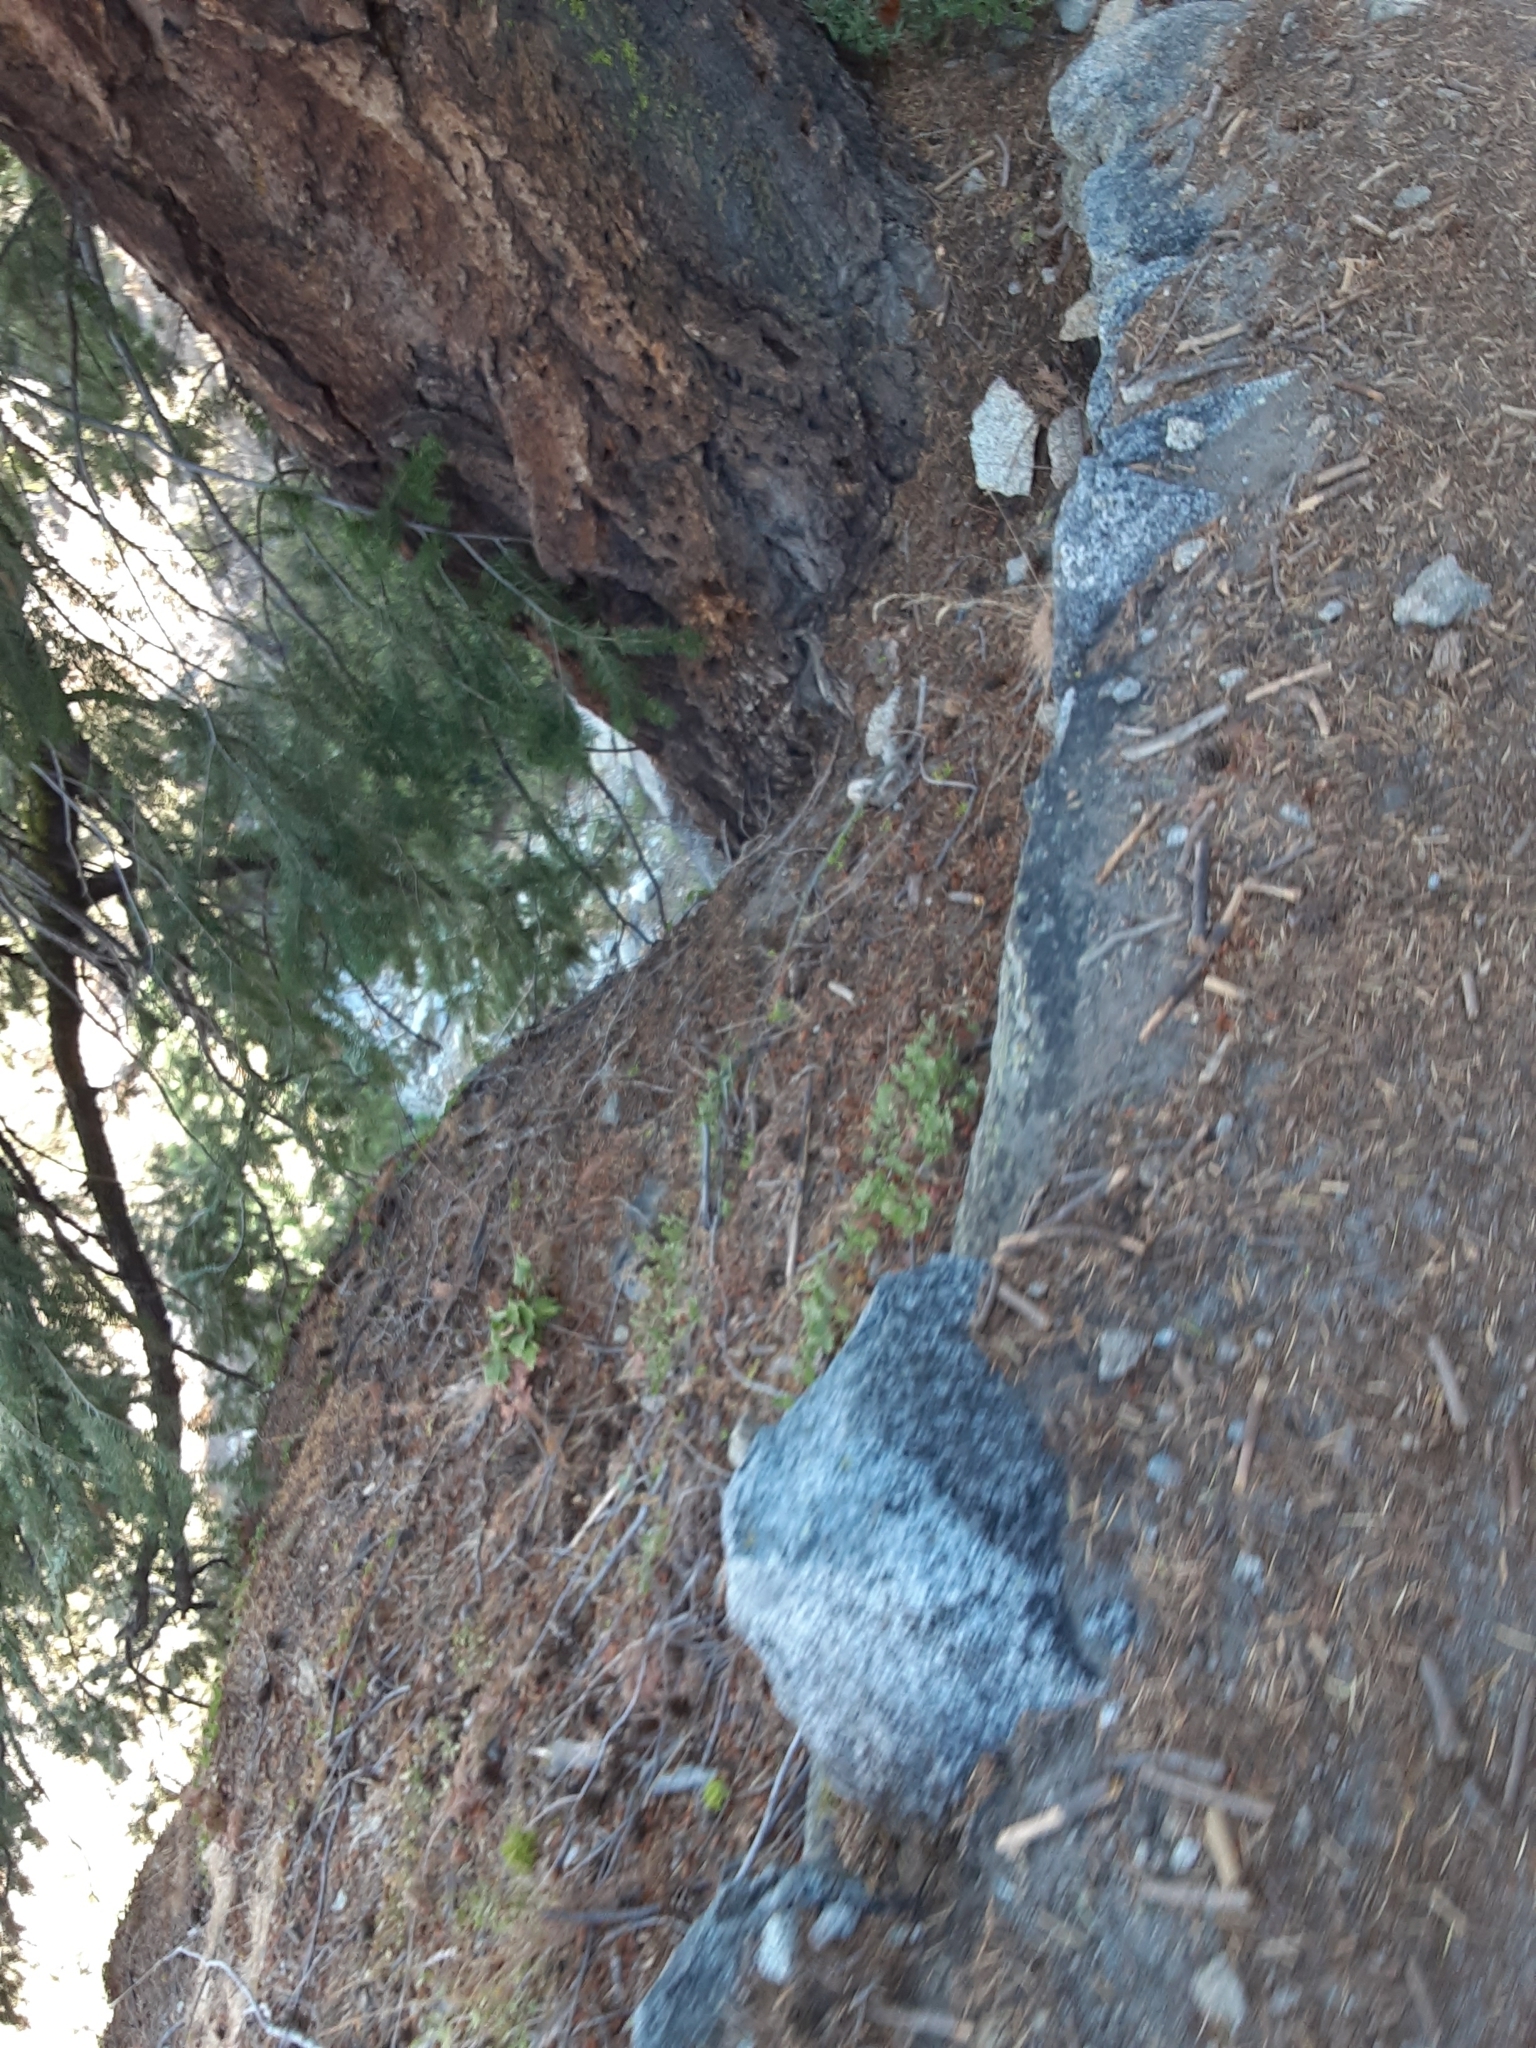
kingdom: Plantae
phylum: Tracheophyta
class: Pinopsida
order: Pinales
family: Pinaceae
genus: Pseudotsuga
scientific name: Pseudotsuga menziesii
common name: Douglas fir
